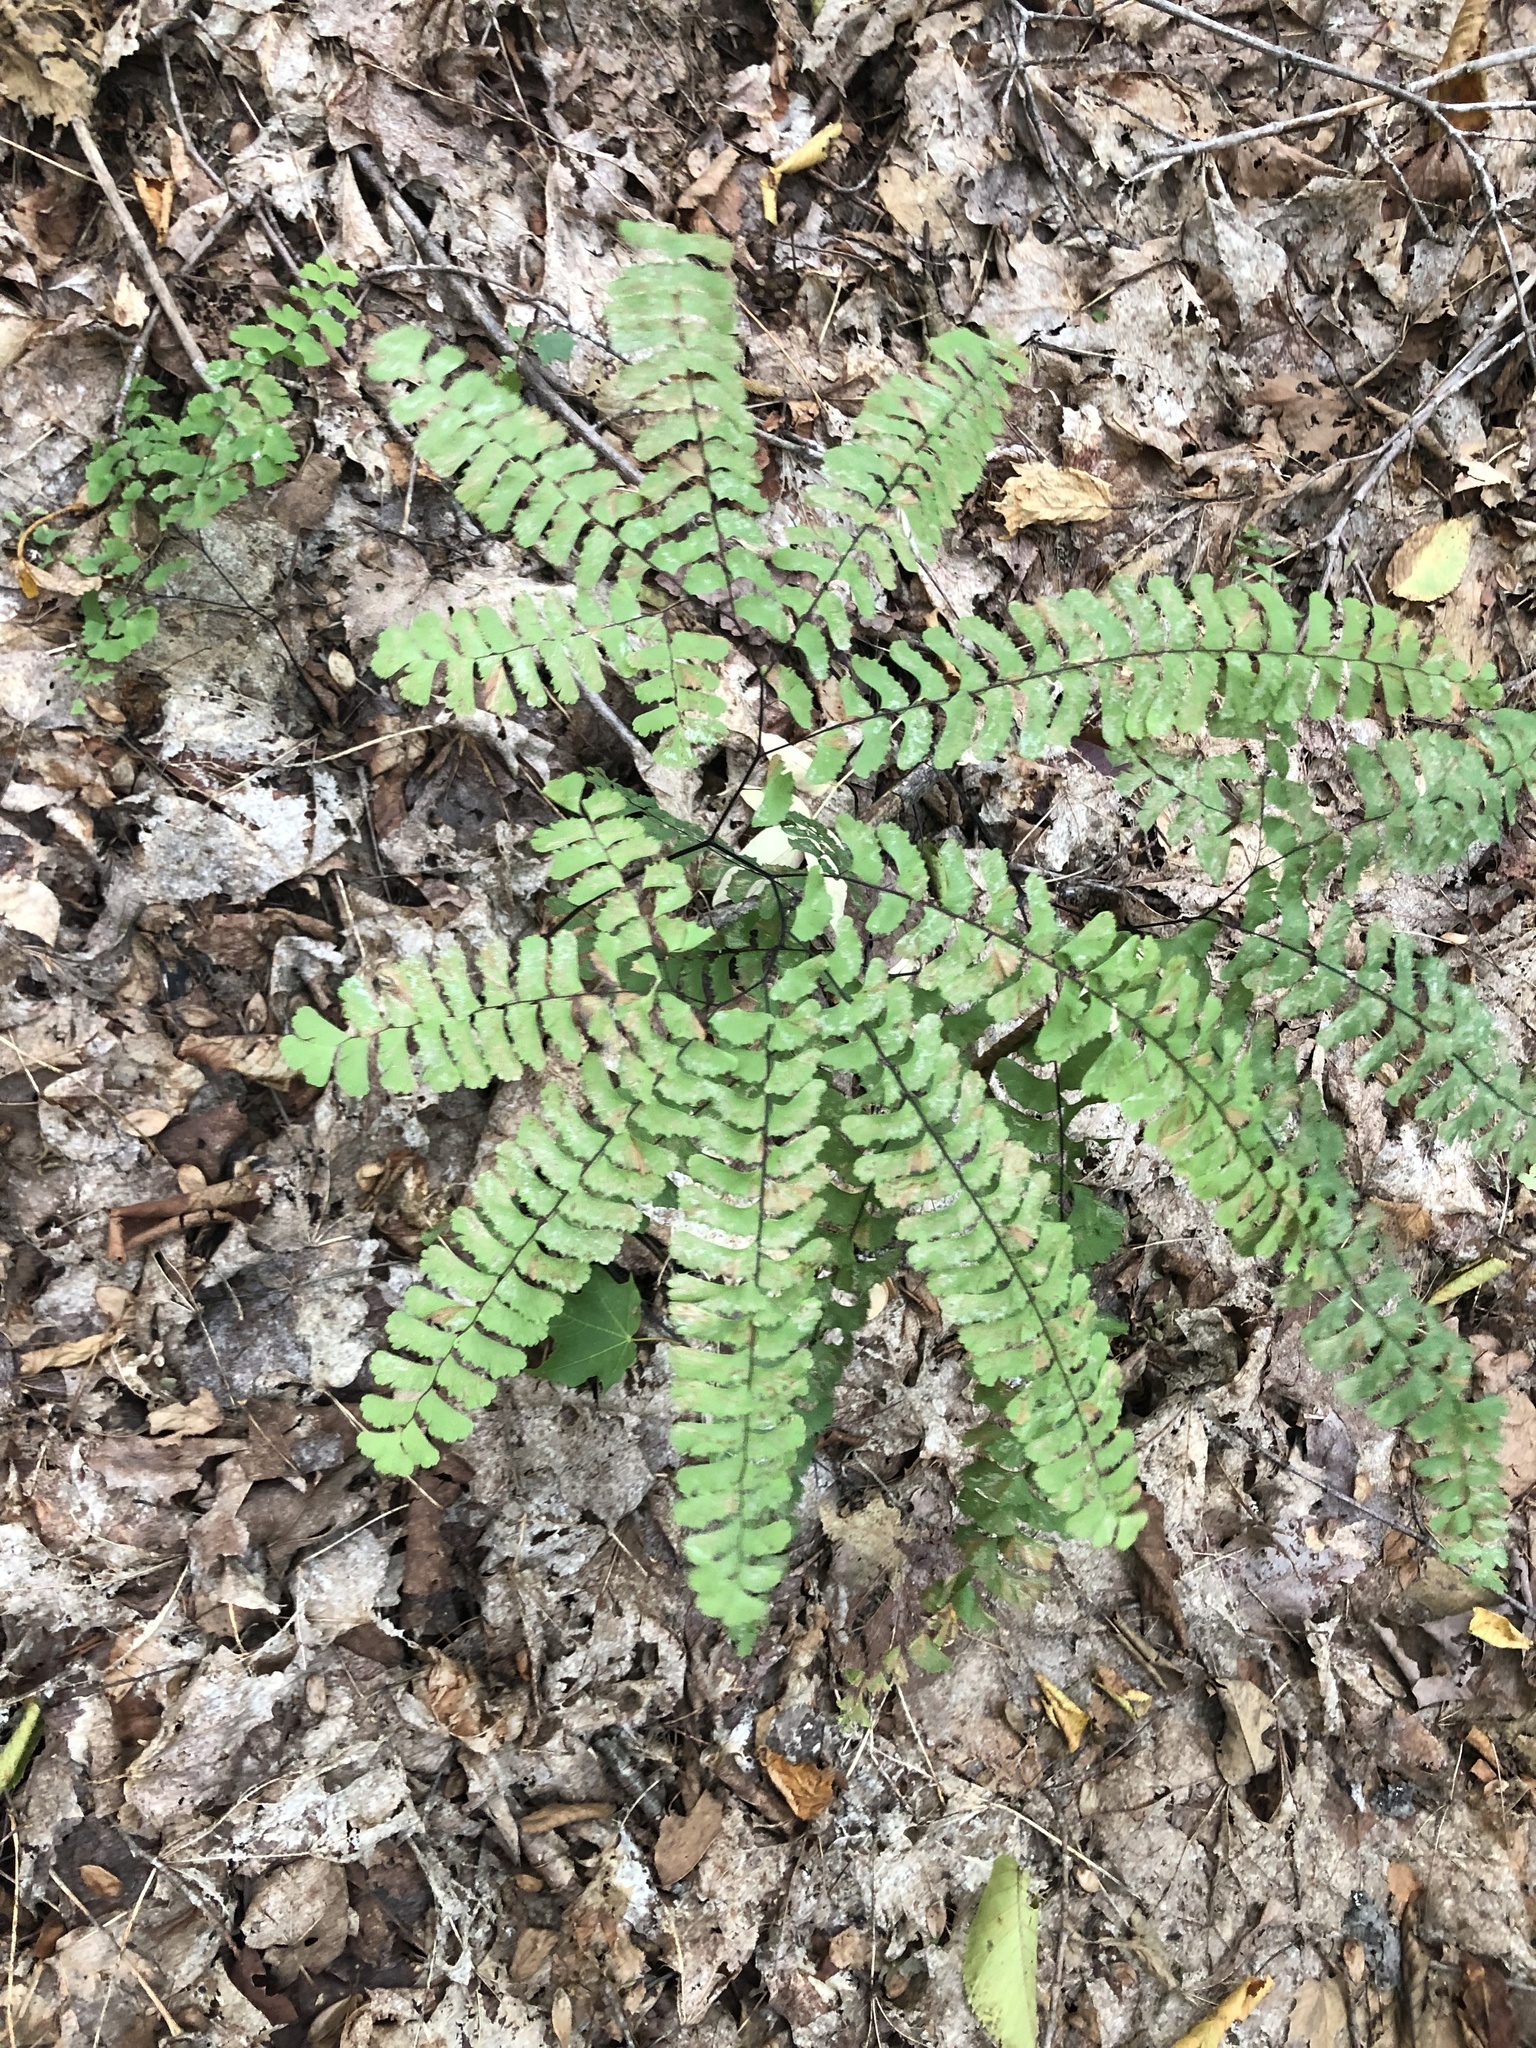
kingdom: Plantae
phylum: Tracheophyta
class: Polypodiopsida
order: Polypodiales
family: Pteridaceae
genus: Adiantum
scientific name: Adiantum pedatum
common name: Five-finger fern
